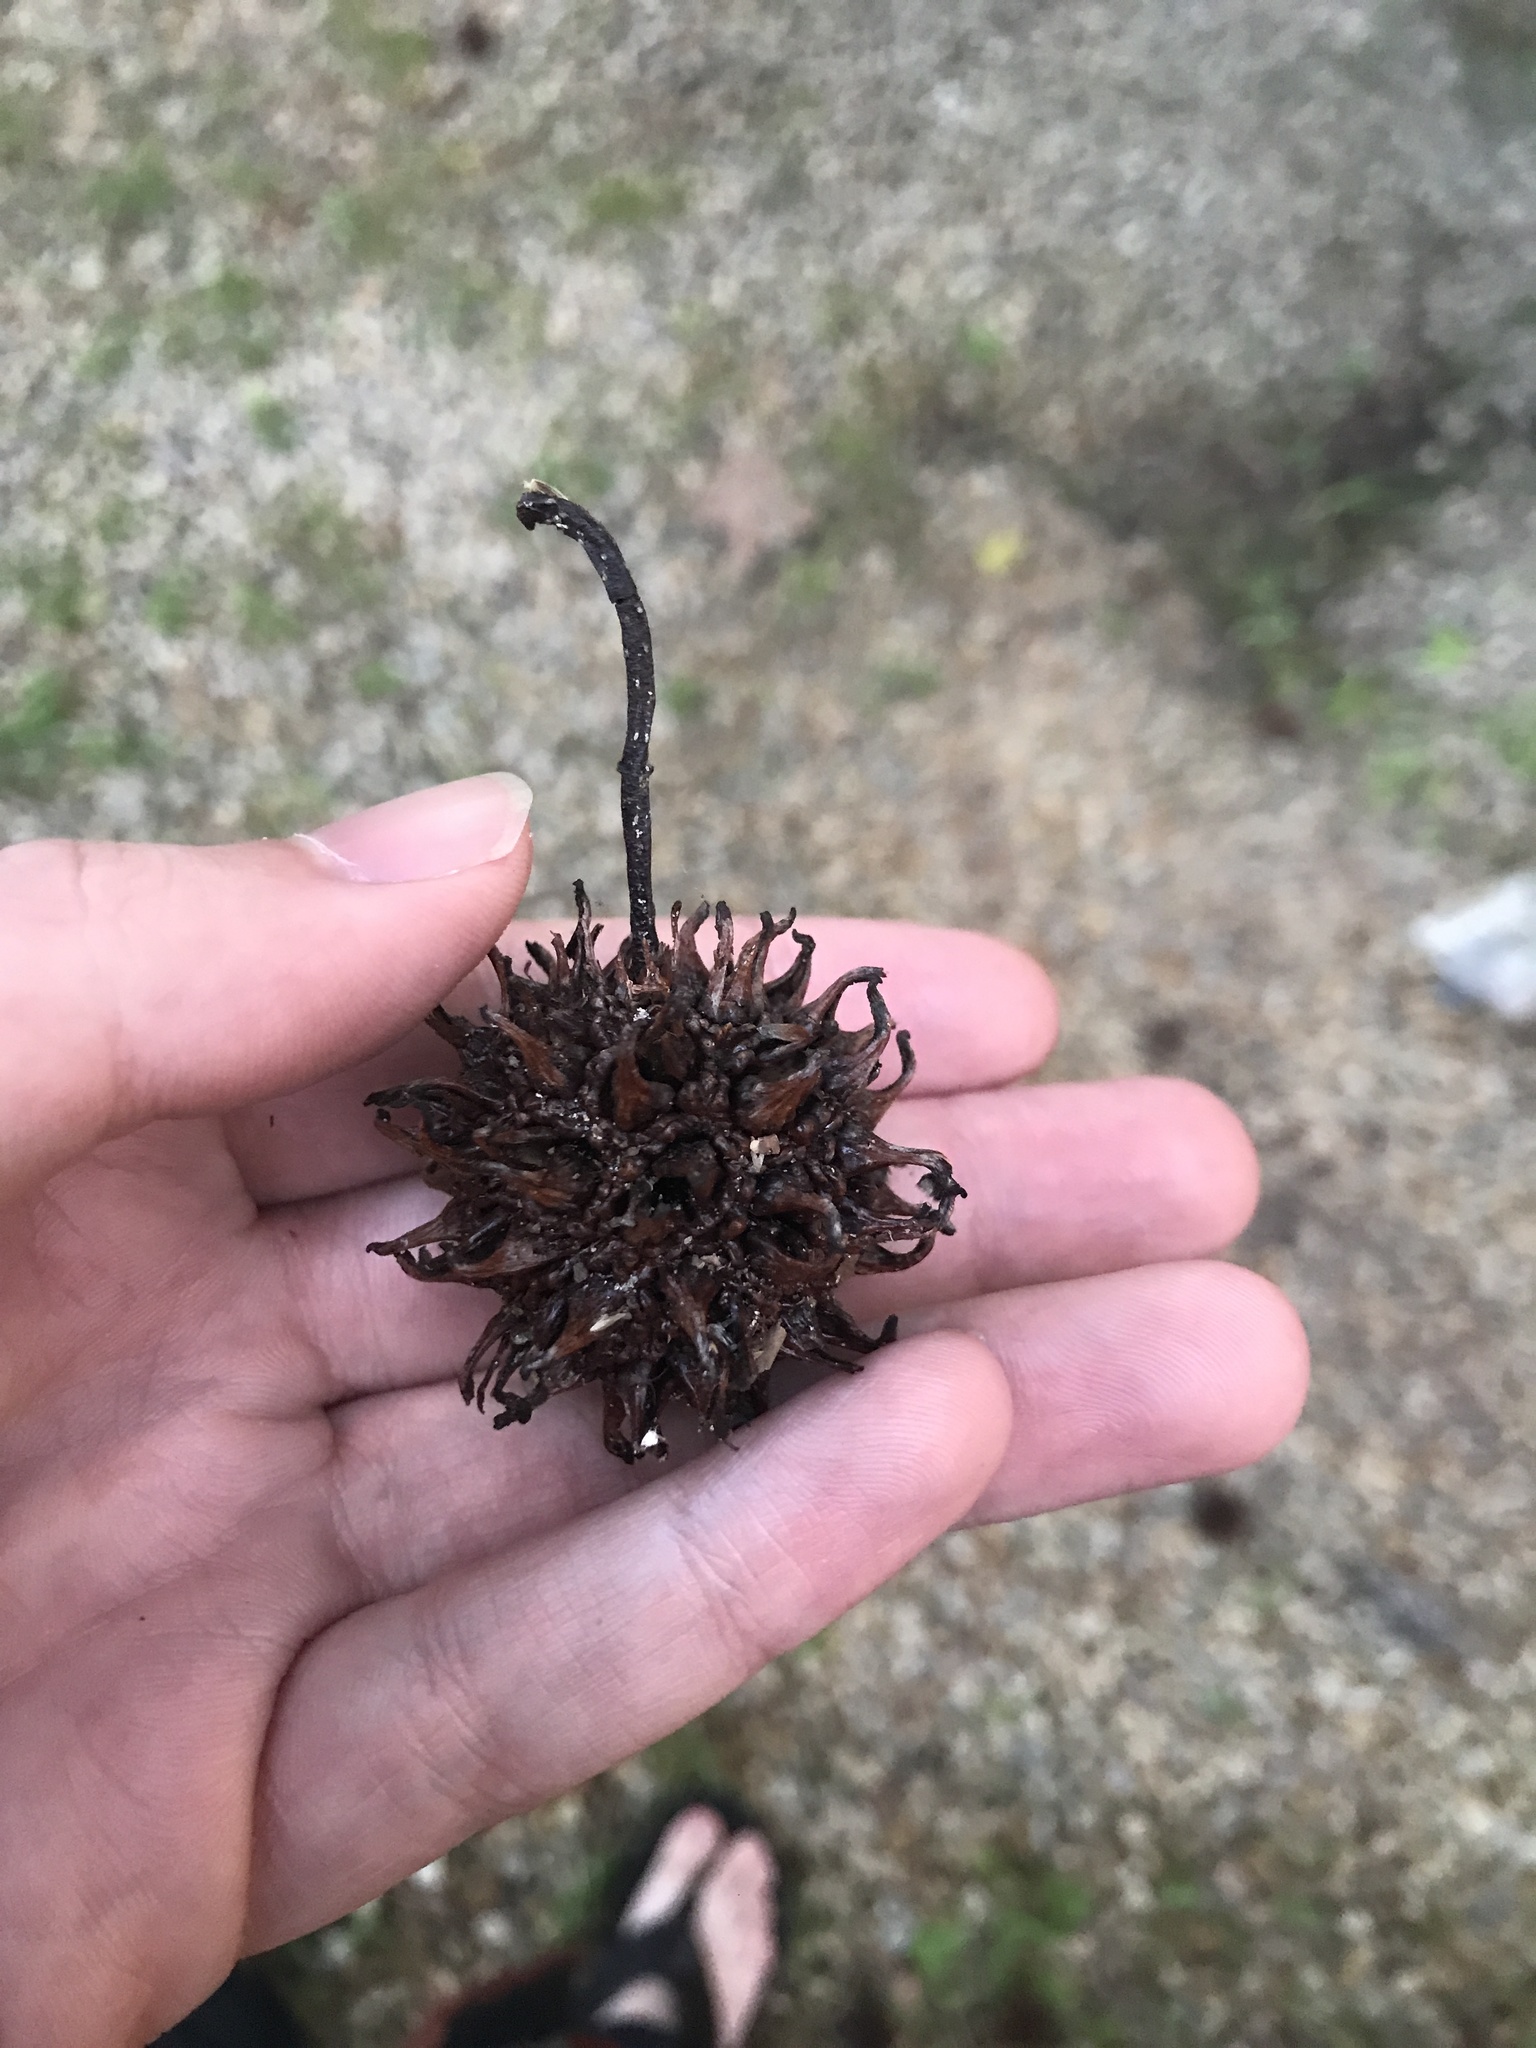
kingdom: Plantae
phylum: Tracheophyta
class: Magnoliopsida
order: Saxifragales
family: Altingiaceae
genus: Liquidambar
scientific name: Liquidambar styraciflua
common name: Sweet gum
